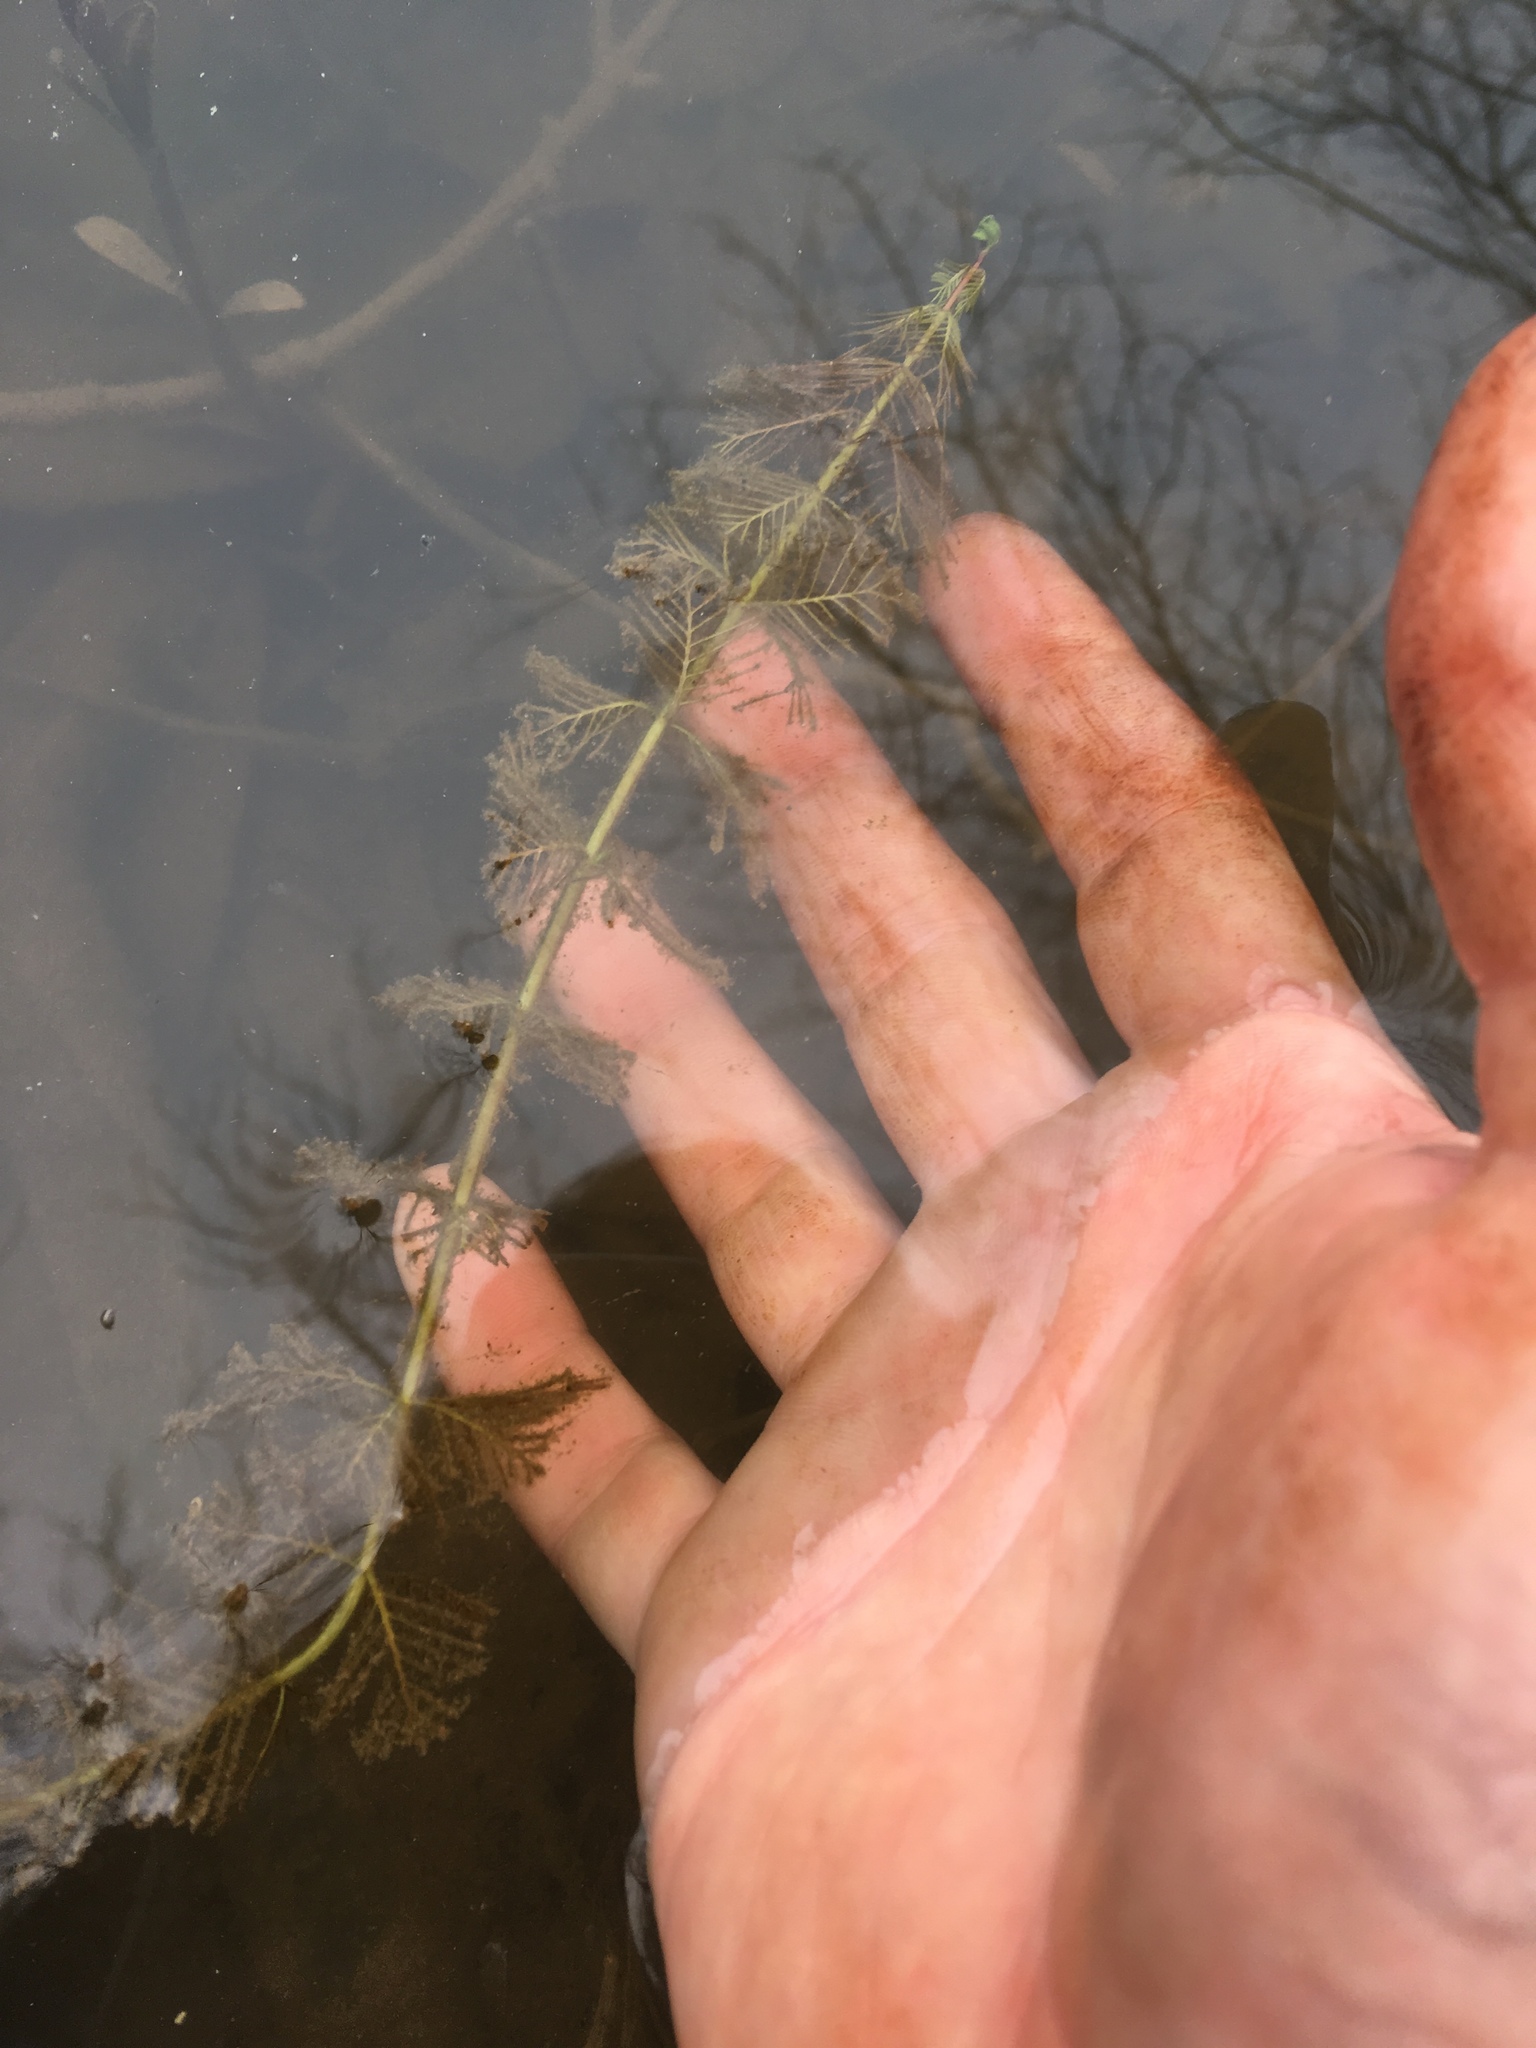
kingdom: Plantae
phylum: Tracheophyta
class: Magnoliopsida
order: Saxifragales
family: Haloragaceae
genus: Myriophyllum
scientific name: Myriophyllum aquaticum
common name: Parrot's feather
